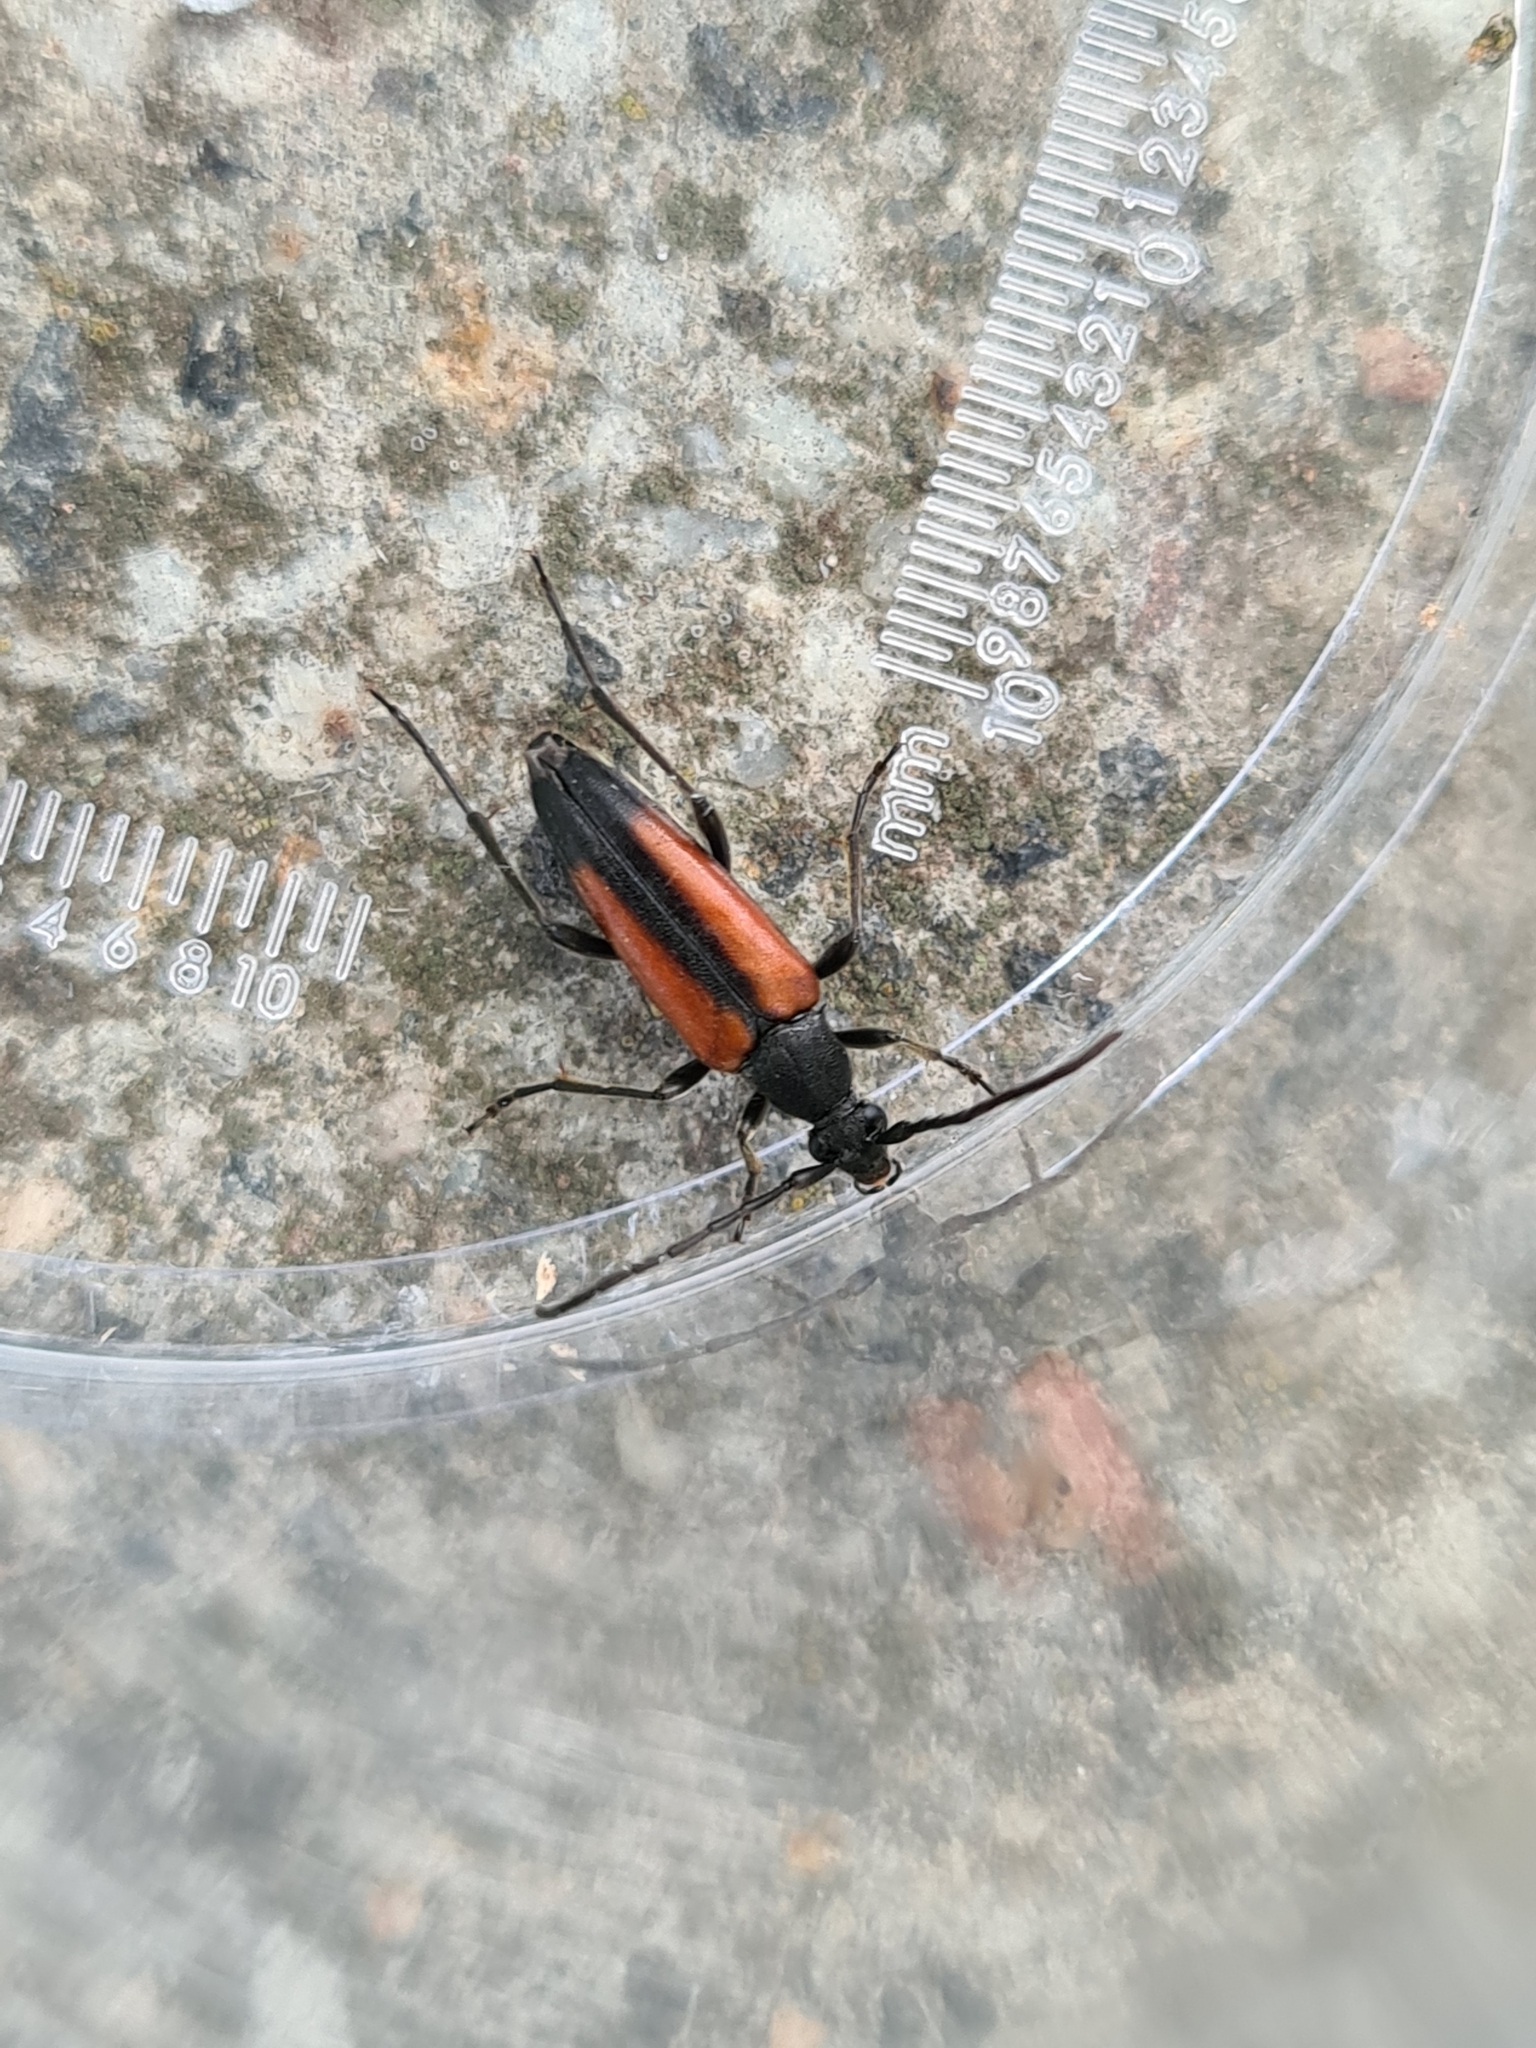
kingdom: Animalia
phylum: Arthropoda
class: Insecta
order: Coleoptera
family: Cerambycidae
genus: Stenurella
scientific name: Stenurella melanura
